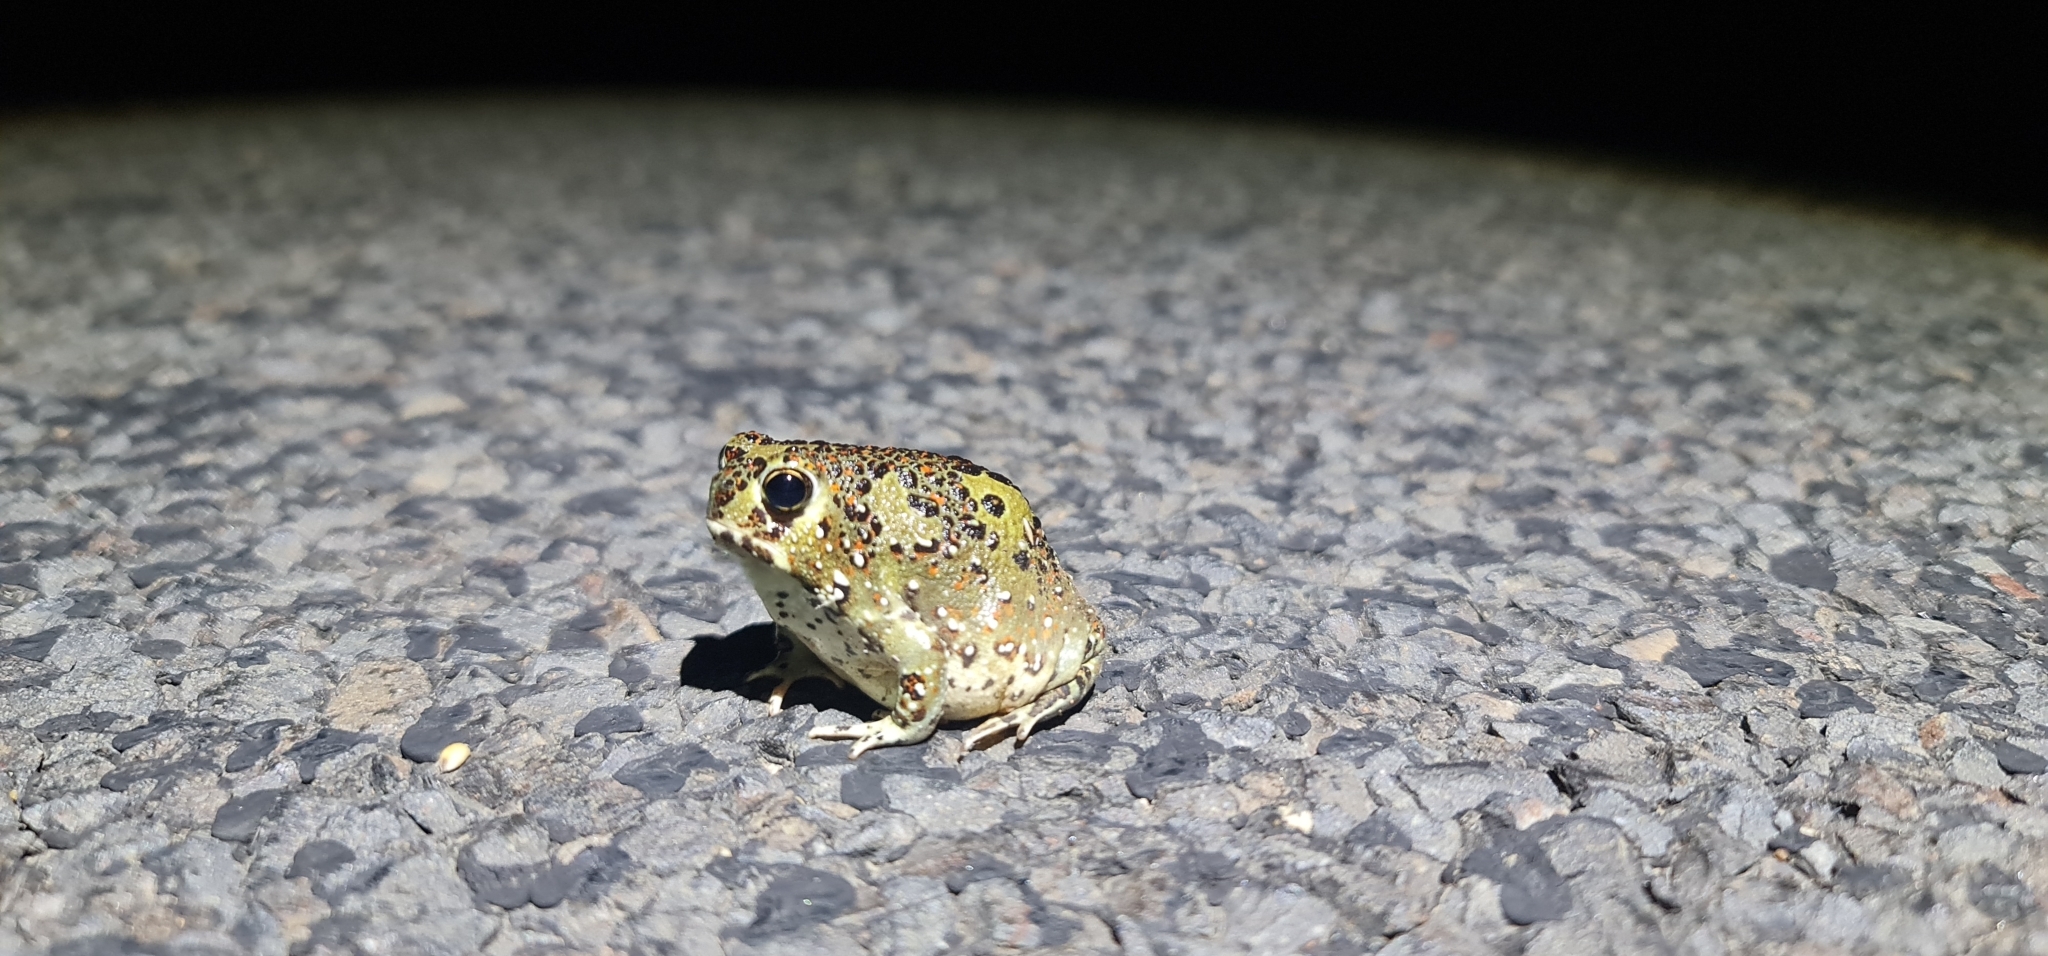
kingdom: Animalia
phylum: Chordata
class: Amphibia
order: Anura
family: Limnodynastidae
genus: Notaden
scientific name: Notaden bennettii
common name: Crucifix frog
